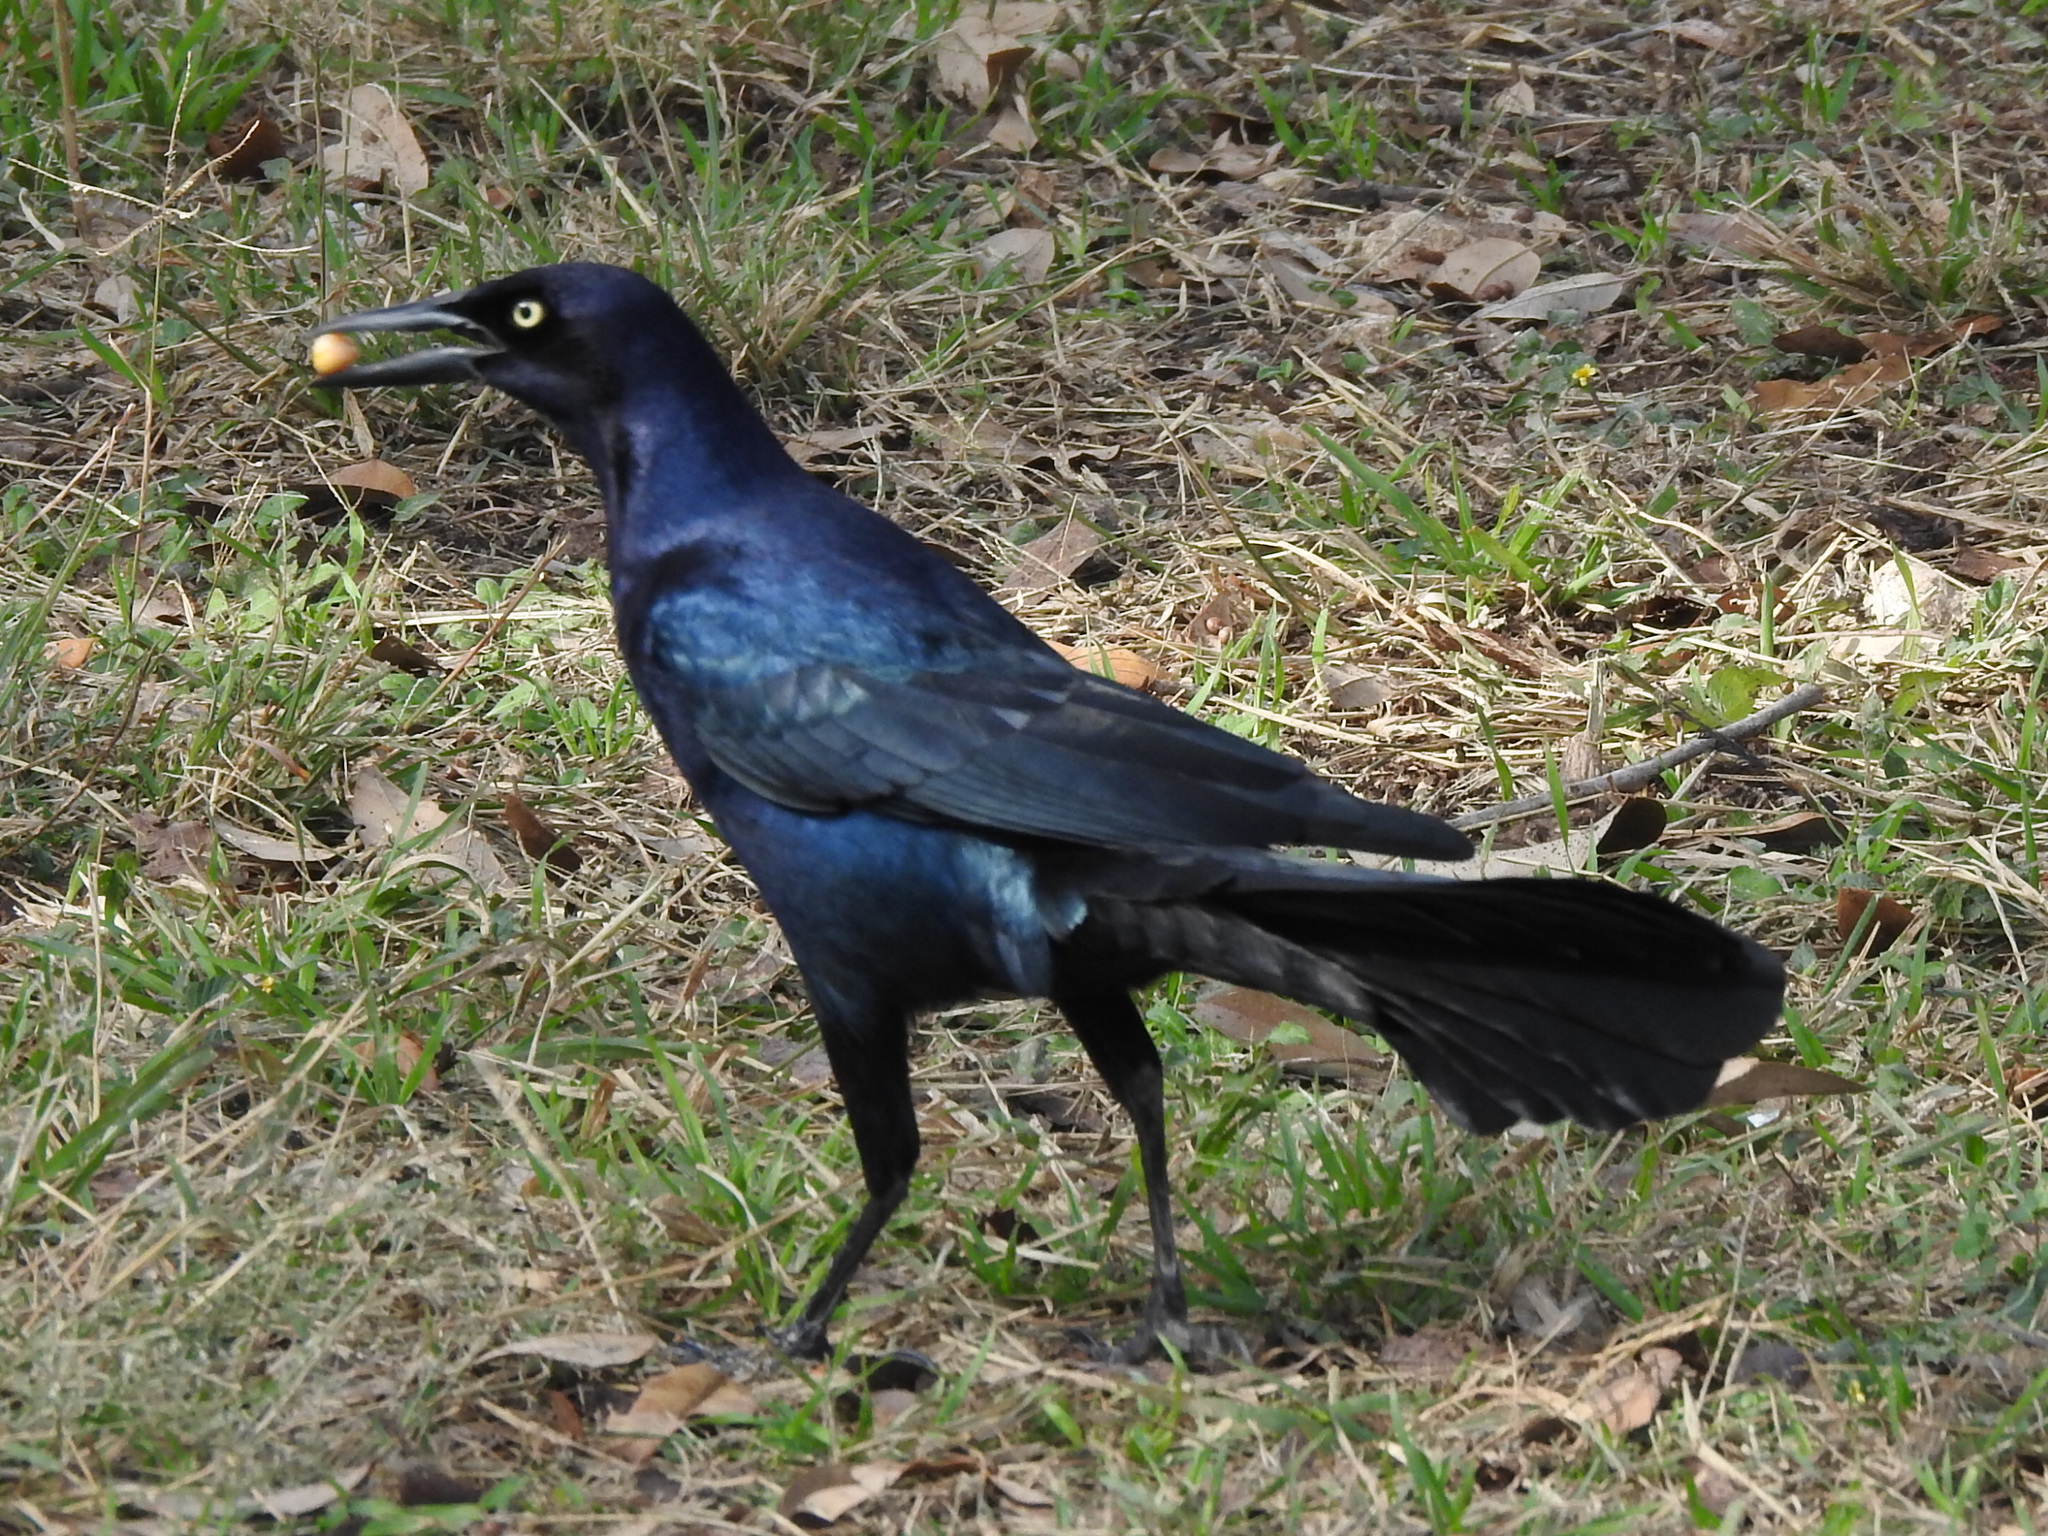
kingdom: Animalia
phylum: Chordata
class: Aves
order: Passeriformes
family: Icteridae
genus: Quiscalus
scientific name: Quiscalus mexicanus
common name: Great-tailed grackle
